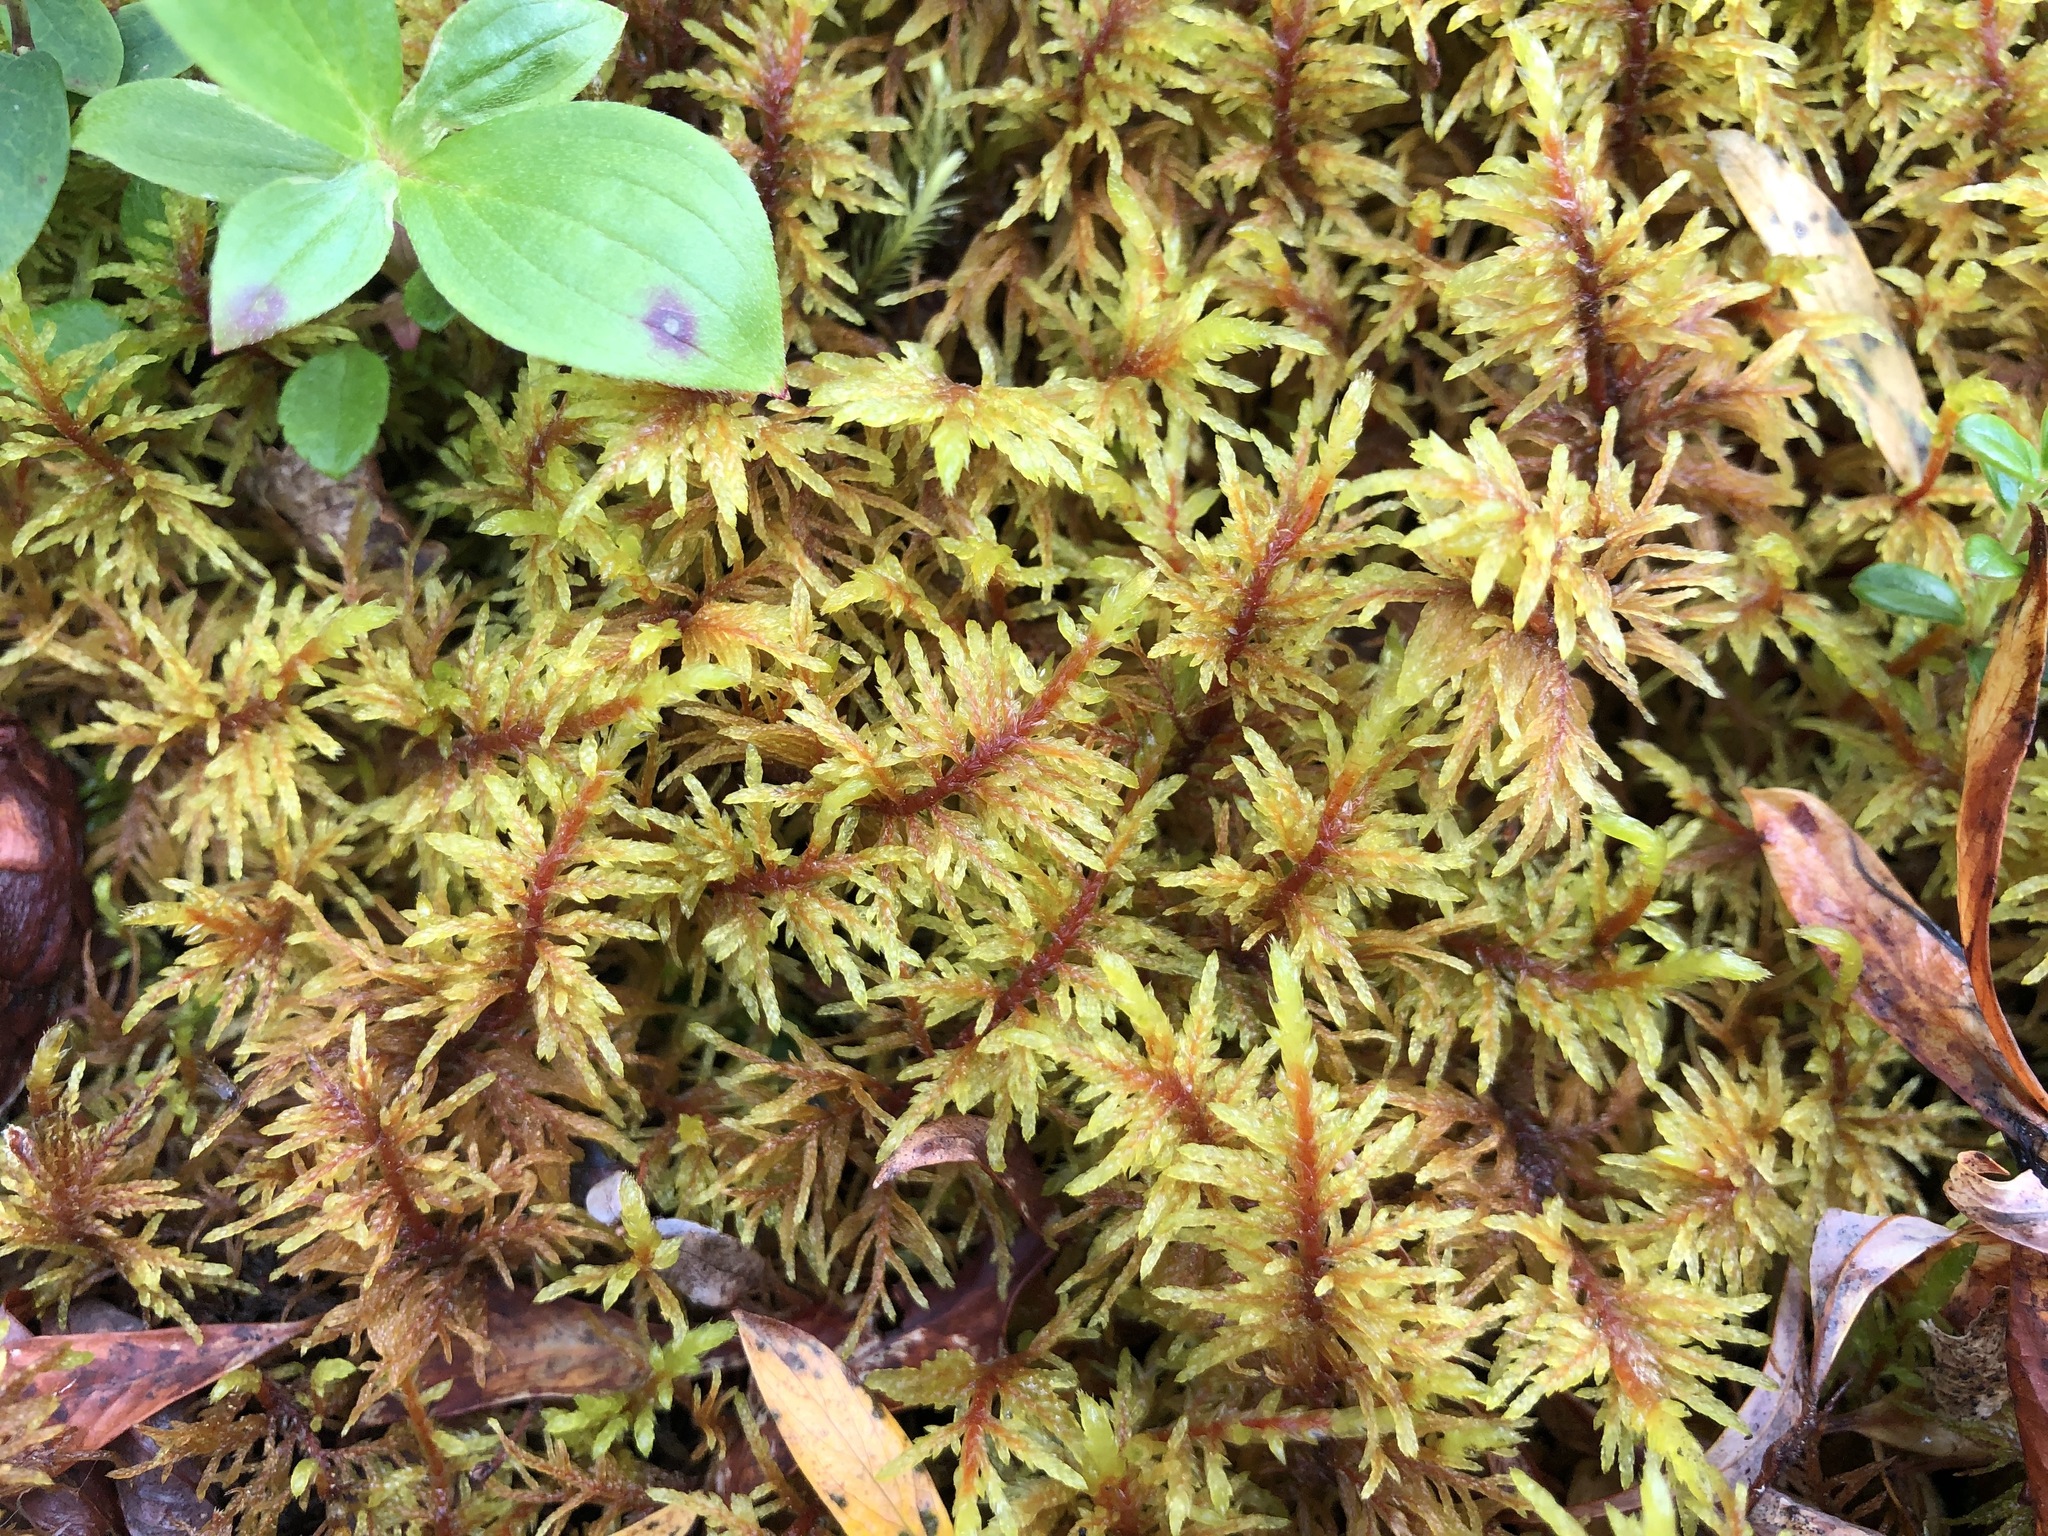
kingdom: Plantae
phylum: Bryophyta
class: Bryopsida
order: Hypnales
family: Hylocomiaceae
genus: Hylocomium
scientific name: Hylocomium splendens
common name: Stairstep moss
